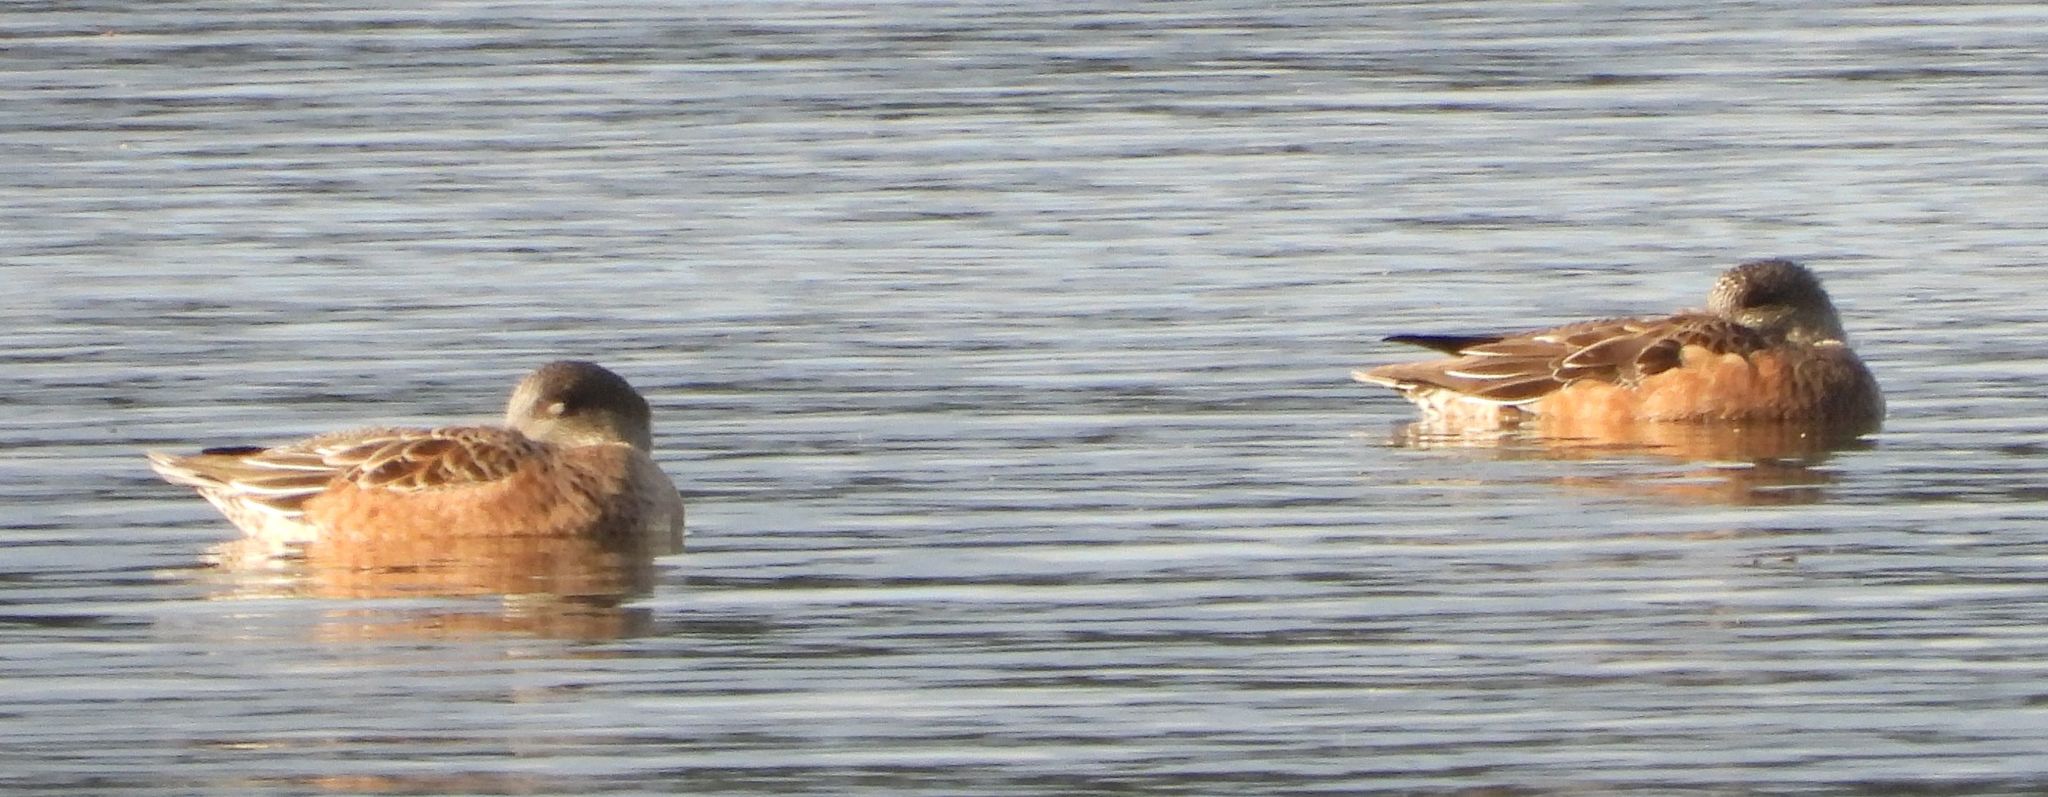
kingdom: Animalia
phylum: Chordata
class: Aves
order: Anseriformes
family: Anatidae
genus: Mareca
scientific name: Mareca americana
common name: American wigeon
